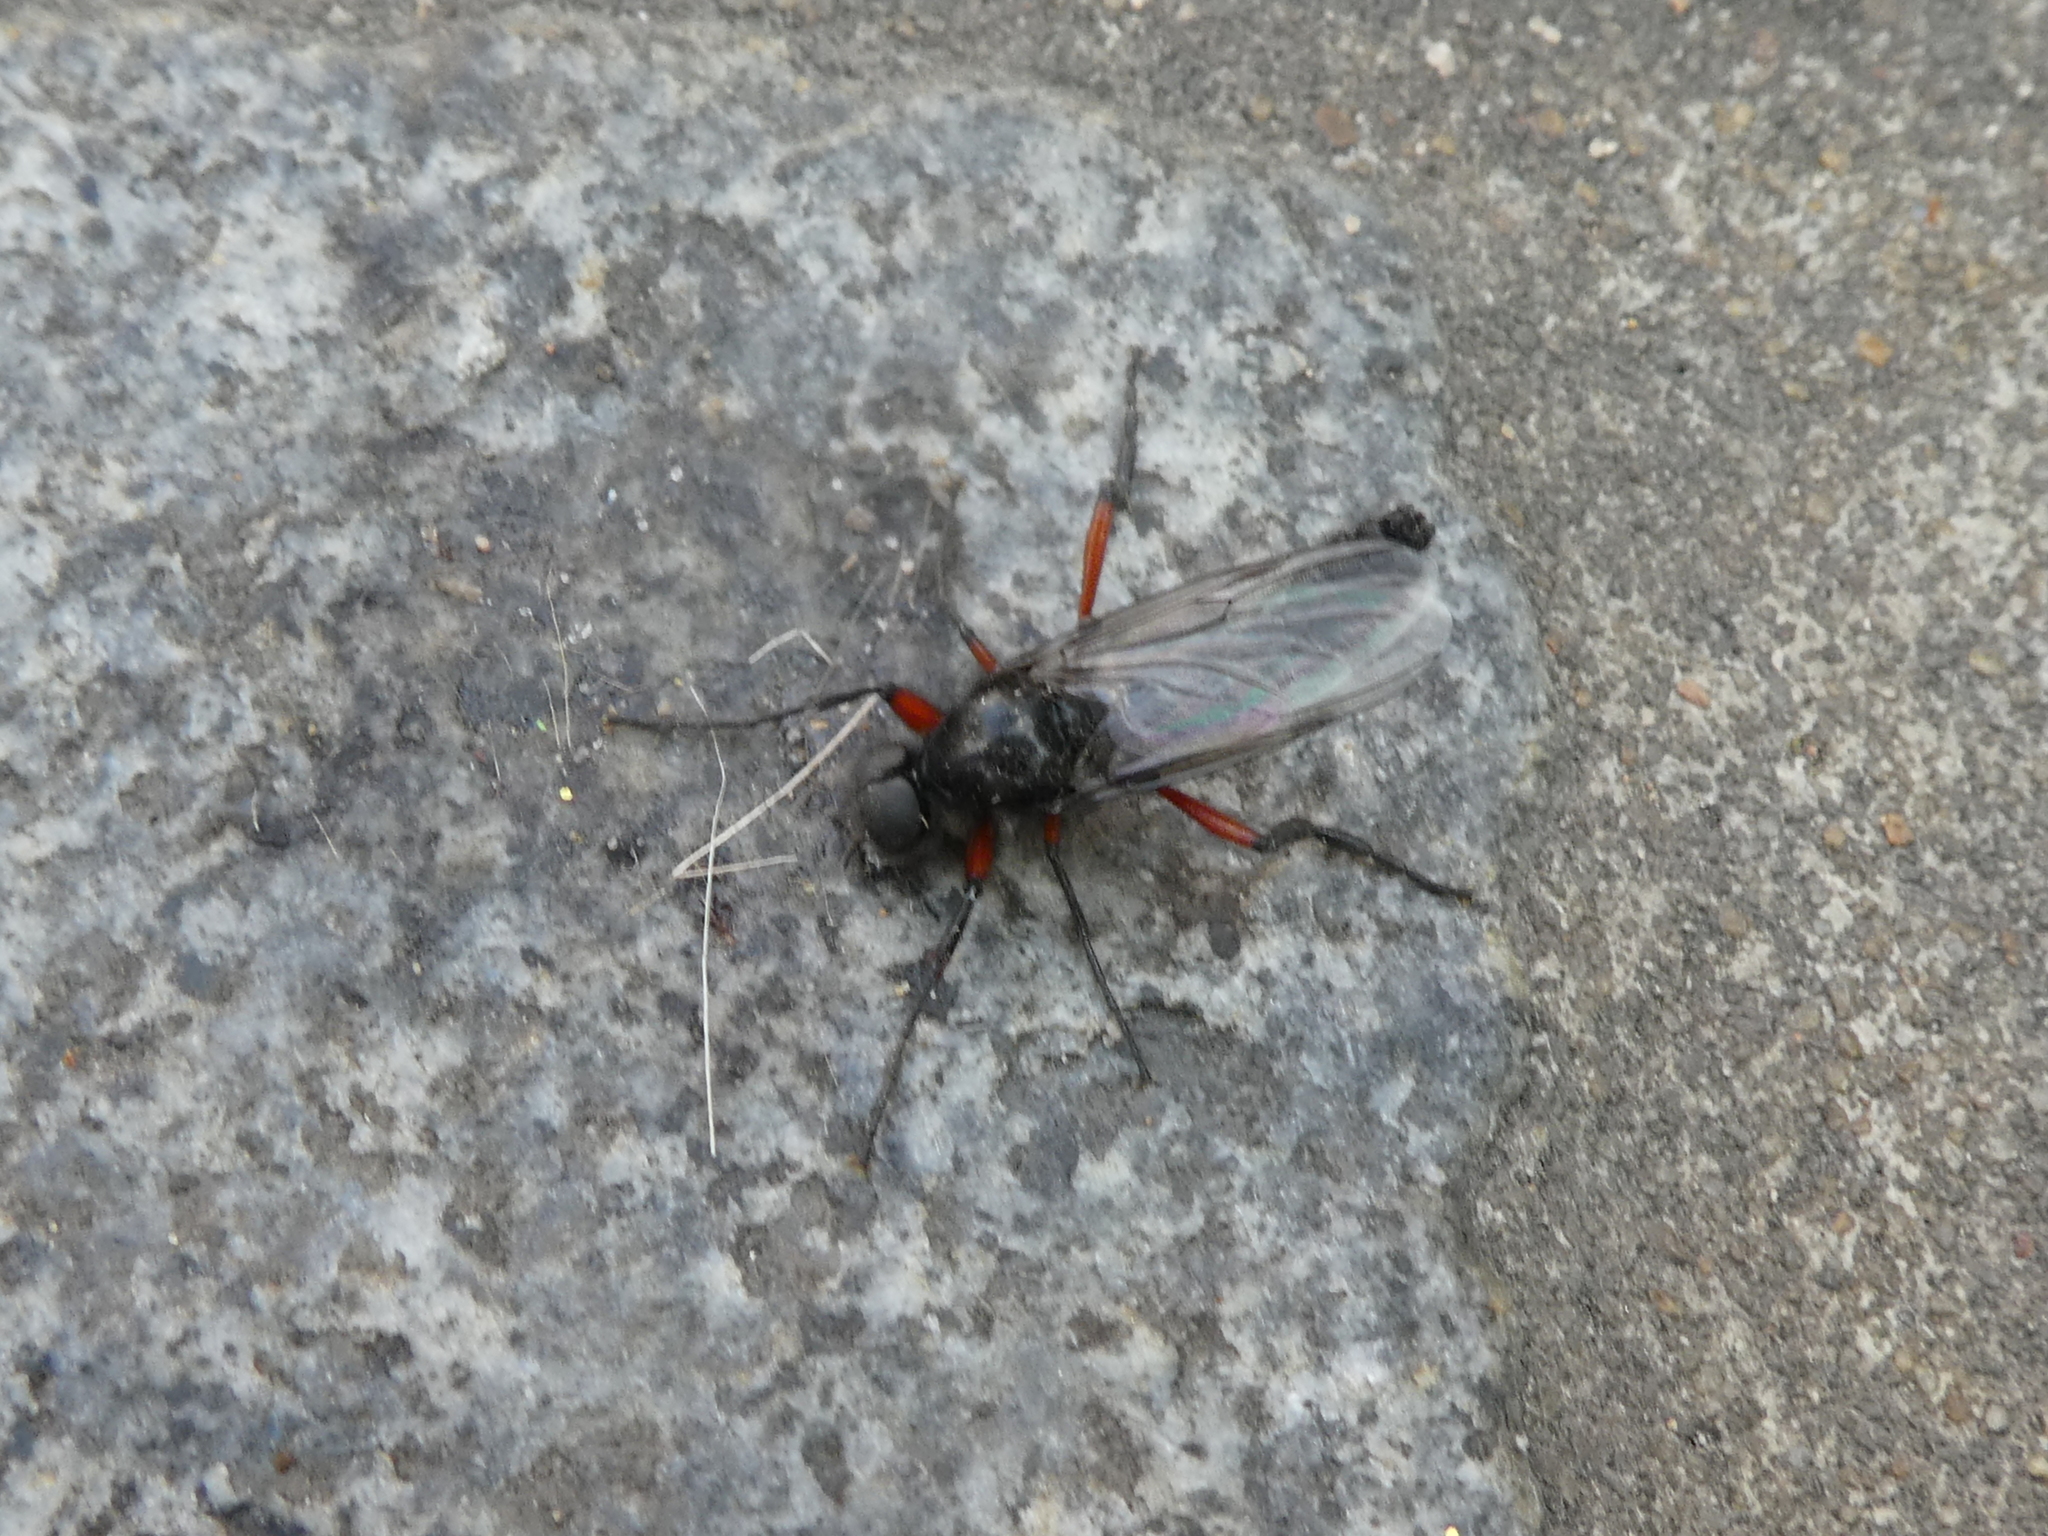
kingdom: Animalia
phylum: Arthropoda
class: Insecta
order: Diptera
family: Bibionidae
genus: Bibio
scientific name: Bibio pomonae
